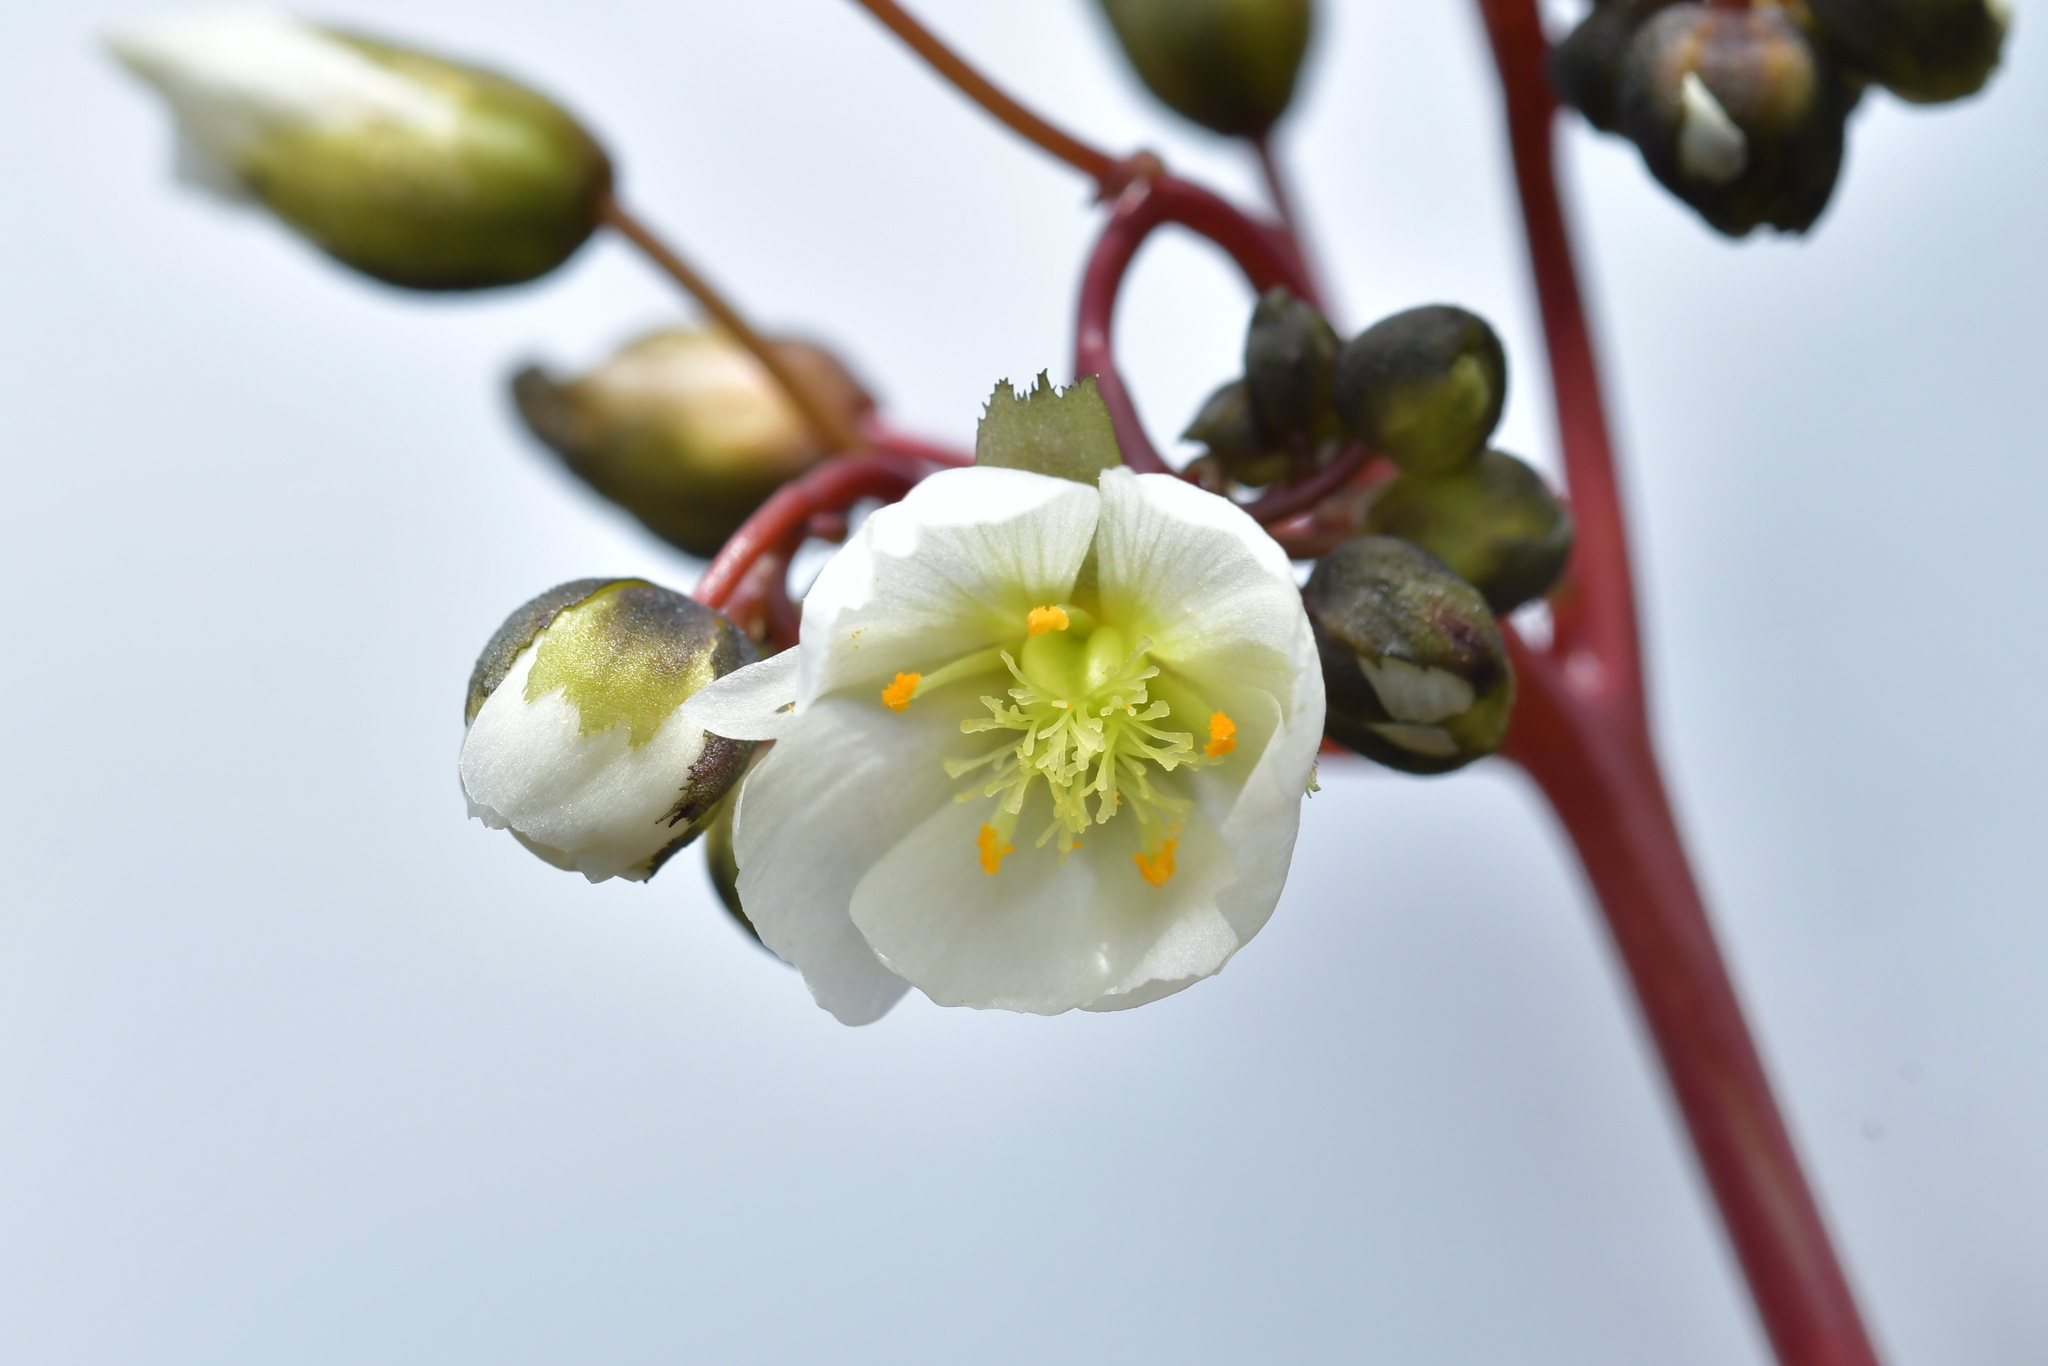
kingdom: Plantae
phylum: Tracheophyta
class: Magnoliopsida
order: Caryophyllales
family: Droseraceae
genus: Drosera
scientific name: Drosera binata
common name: Forked sundew
